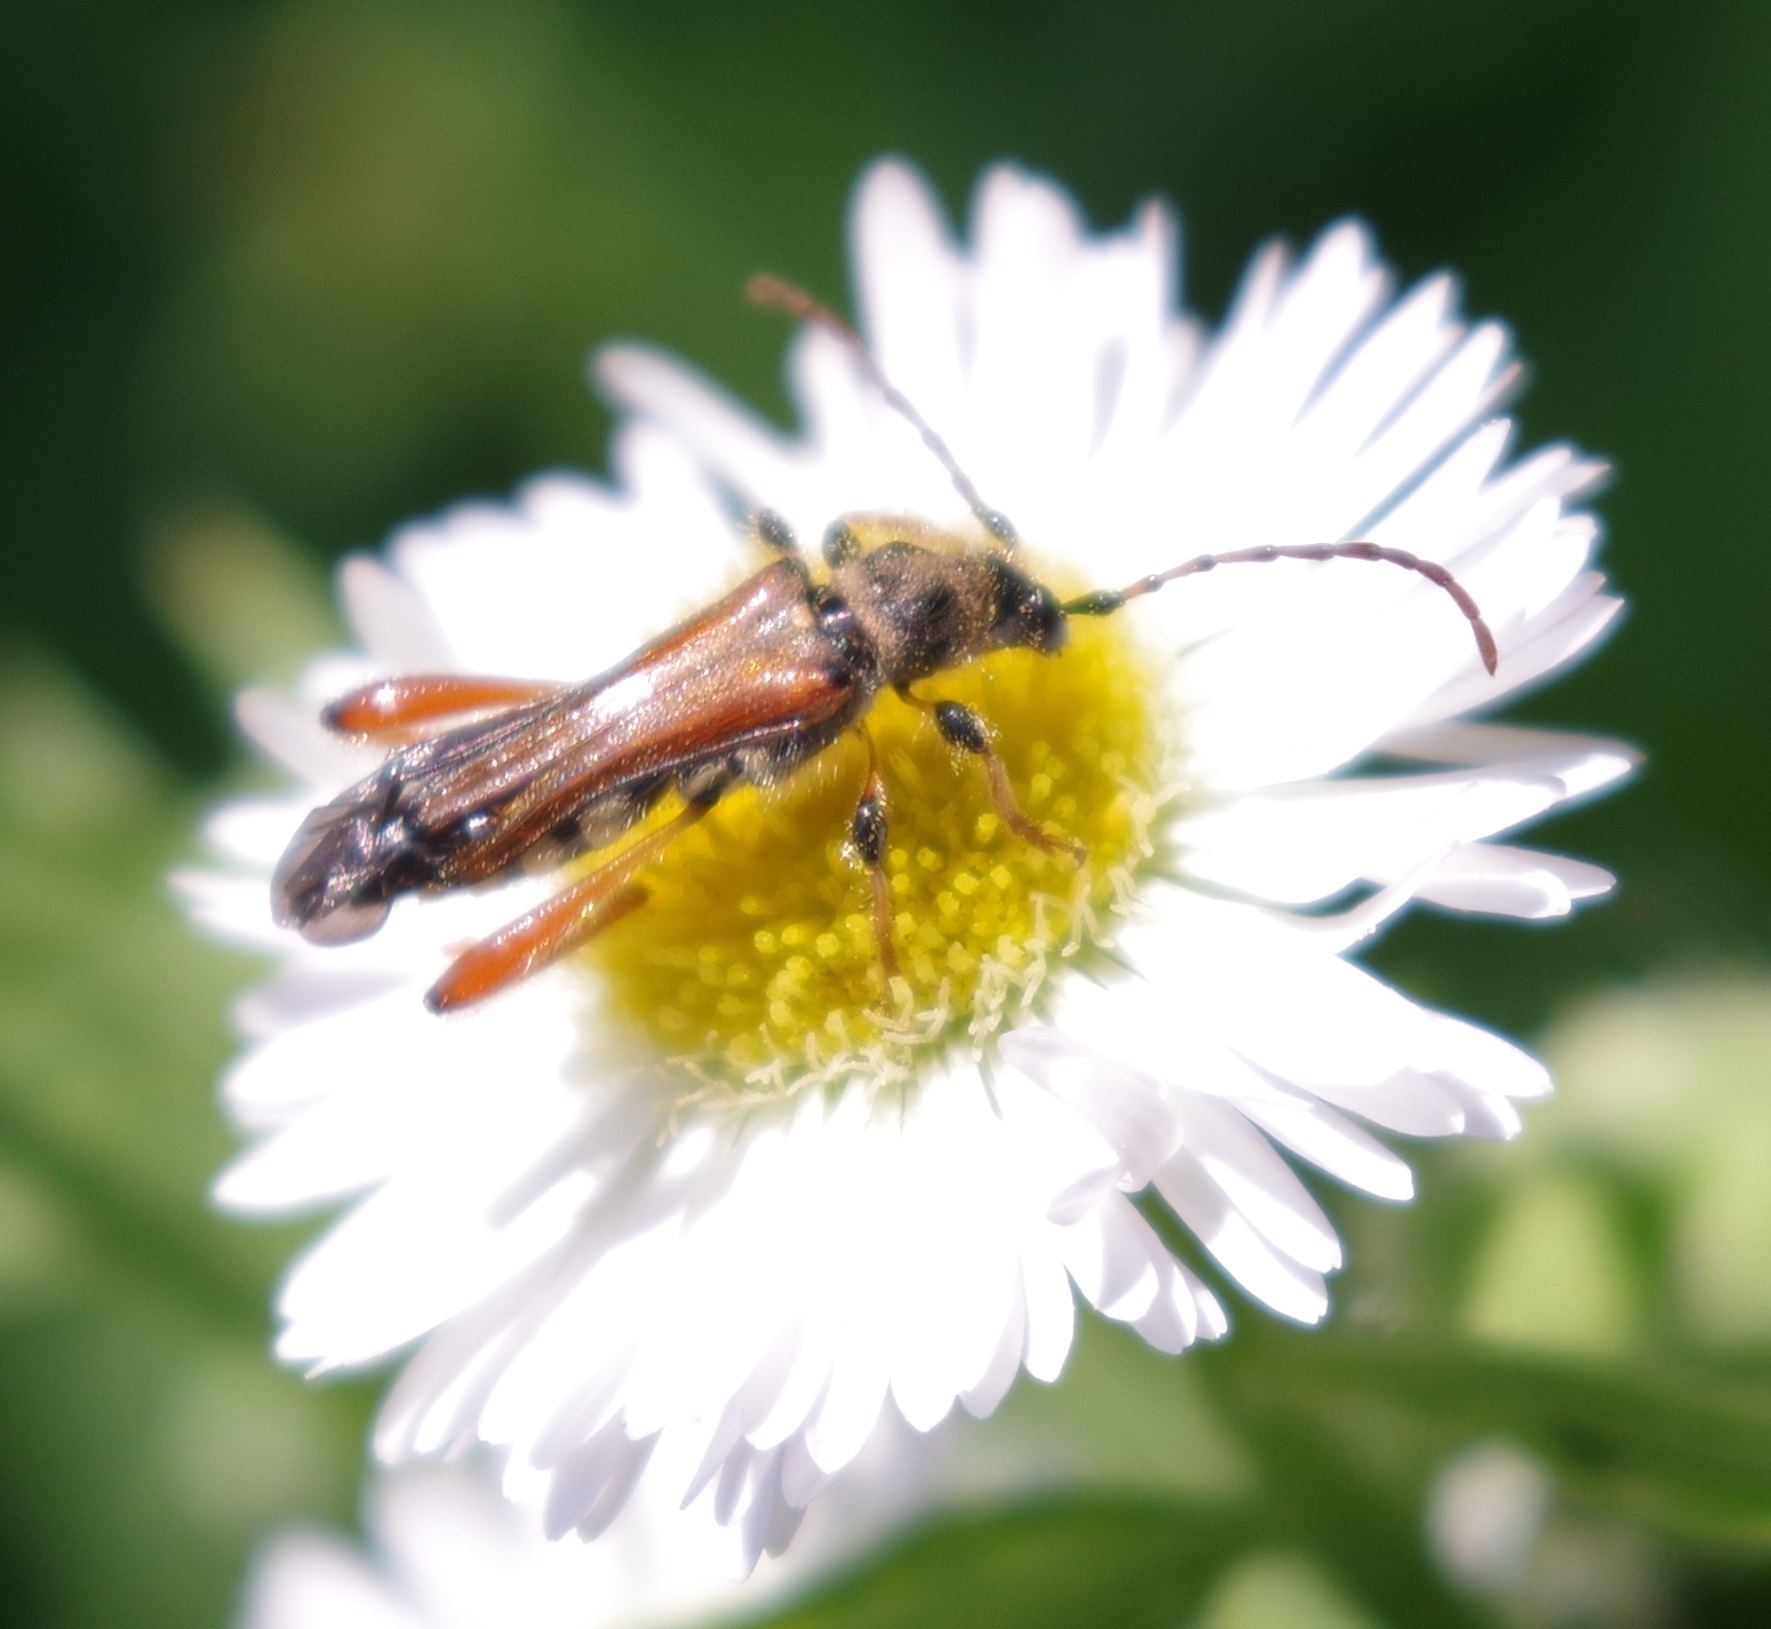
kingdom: Animalia
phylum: Arthropoda
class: Insecta
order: Coleoptera
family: Cerambycidae
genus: Stenopterus
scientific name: Stenopterus rufus
